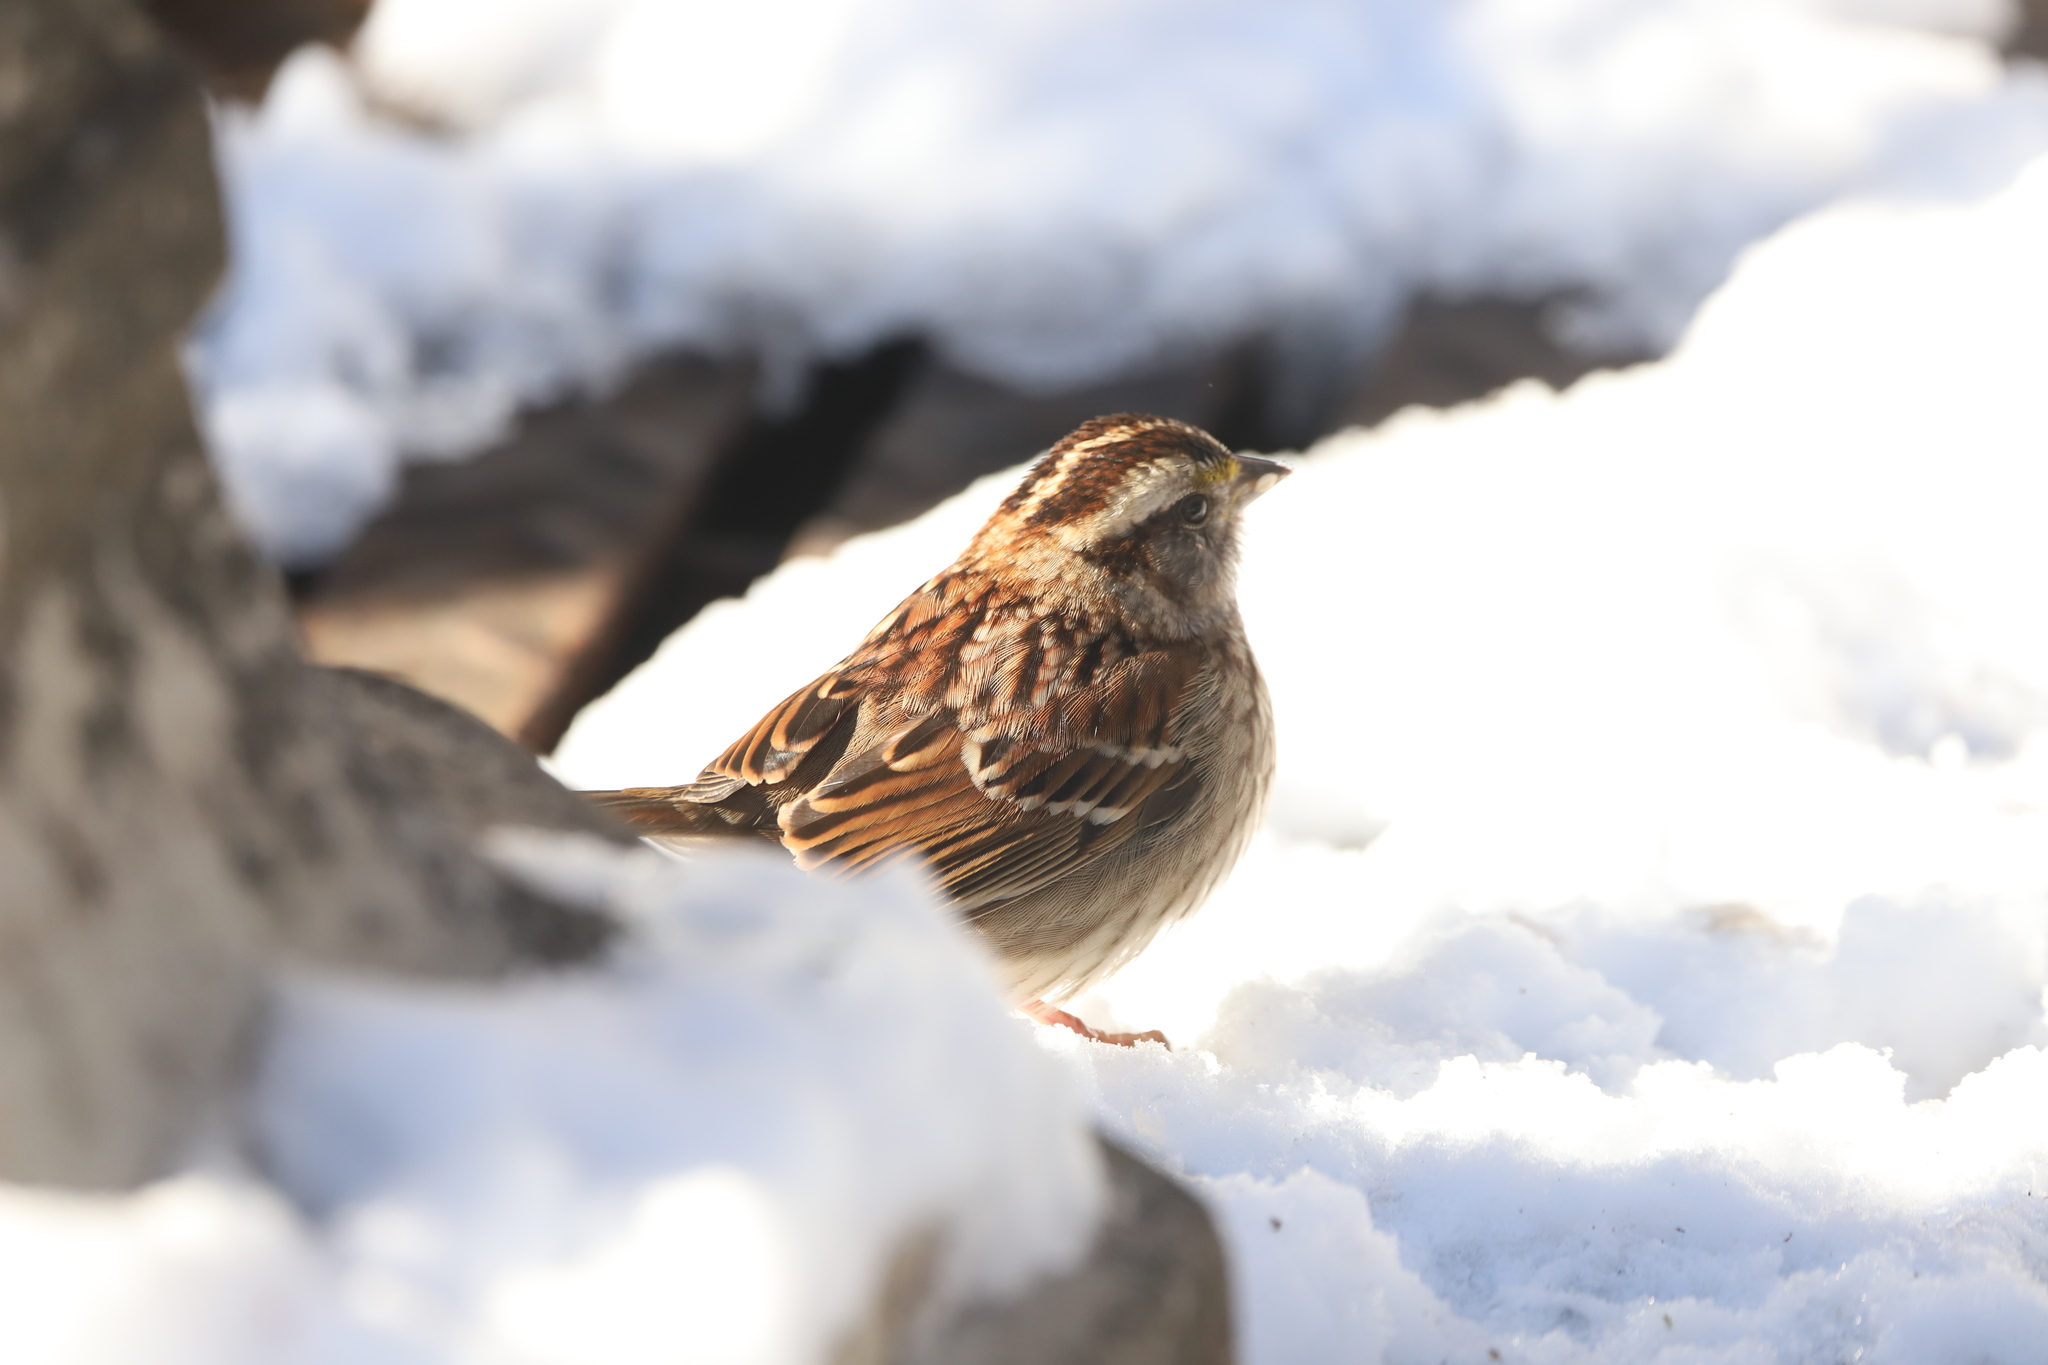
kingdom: Animalia
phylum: Chordata
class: Aves
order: Passeriformes
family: Passerellidae
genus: Zonotrichia
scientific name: Zonotrichia albicollis
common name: White-throated sparrow
